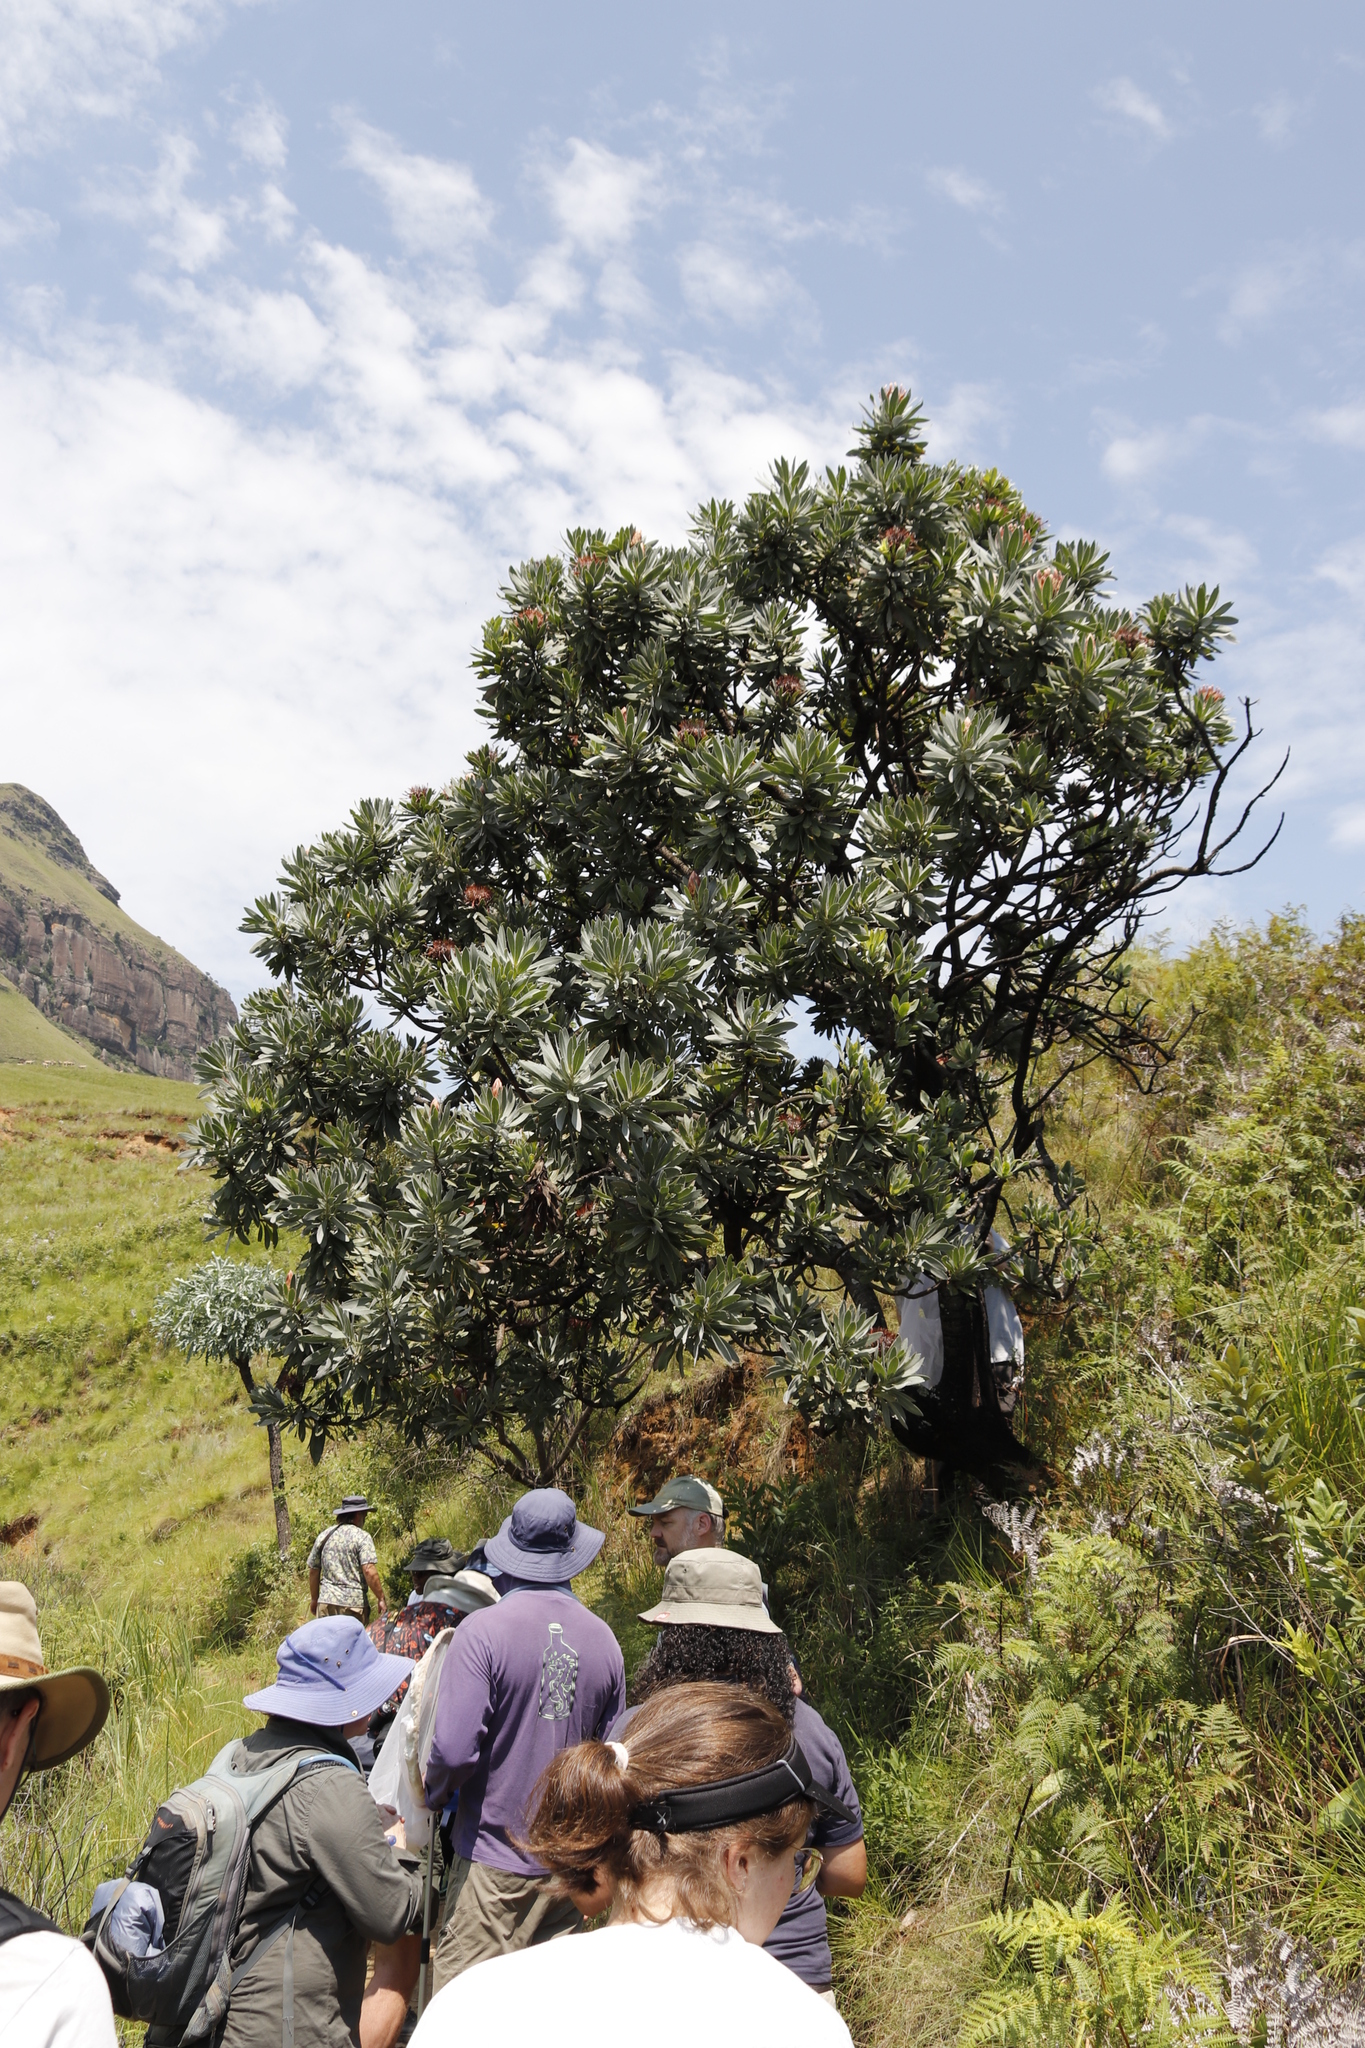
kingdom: Plantae
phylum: Tracheophyta
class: Magnoliopsida
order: Proteales
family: Proteaceae
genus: Protea
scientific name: Protea roupelliae
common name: Silver sugarbush
